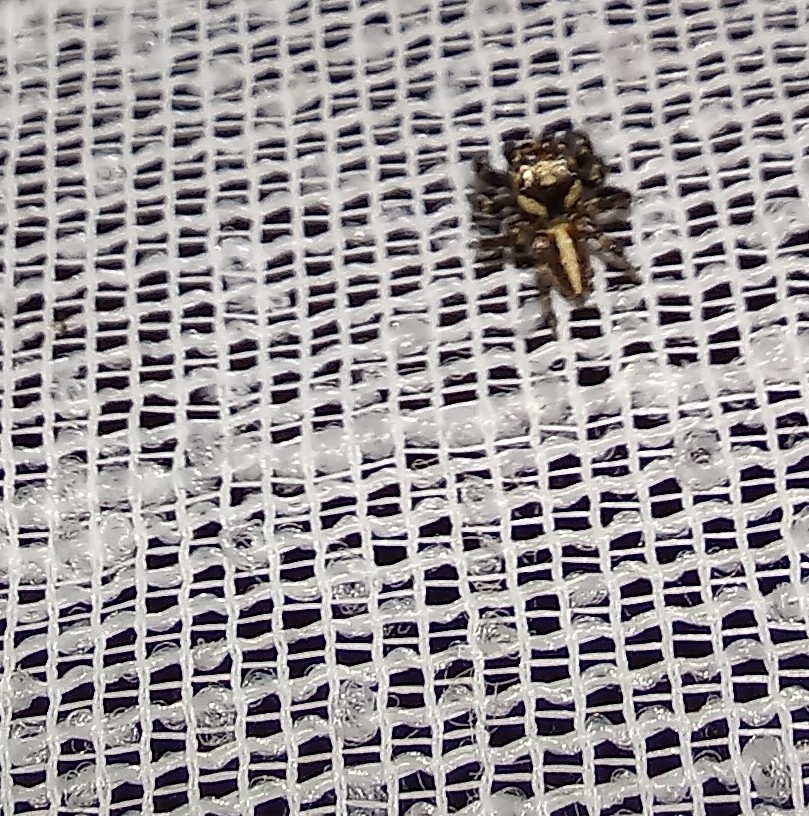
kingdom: Animalia
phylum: Arthropoda
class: Arachnida
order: Araneae
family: Salticidae
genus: Evarcha
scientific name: Evarcha denticulata
